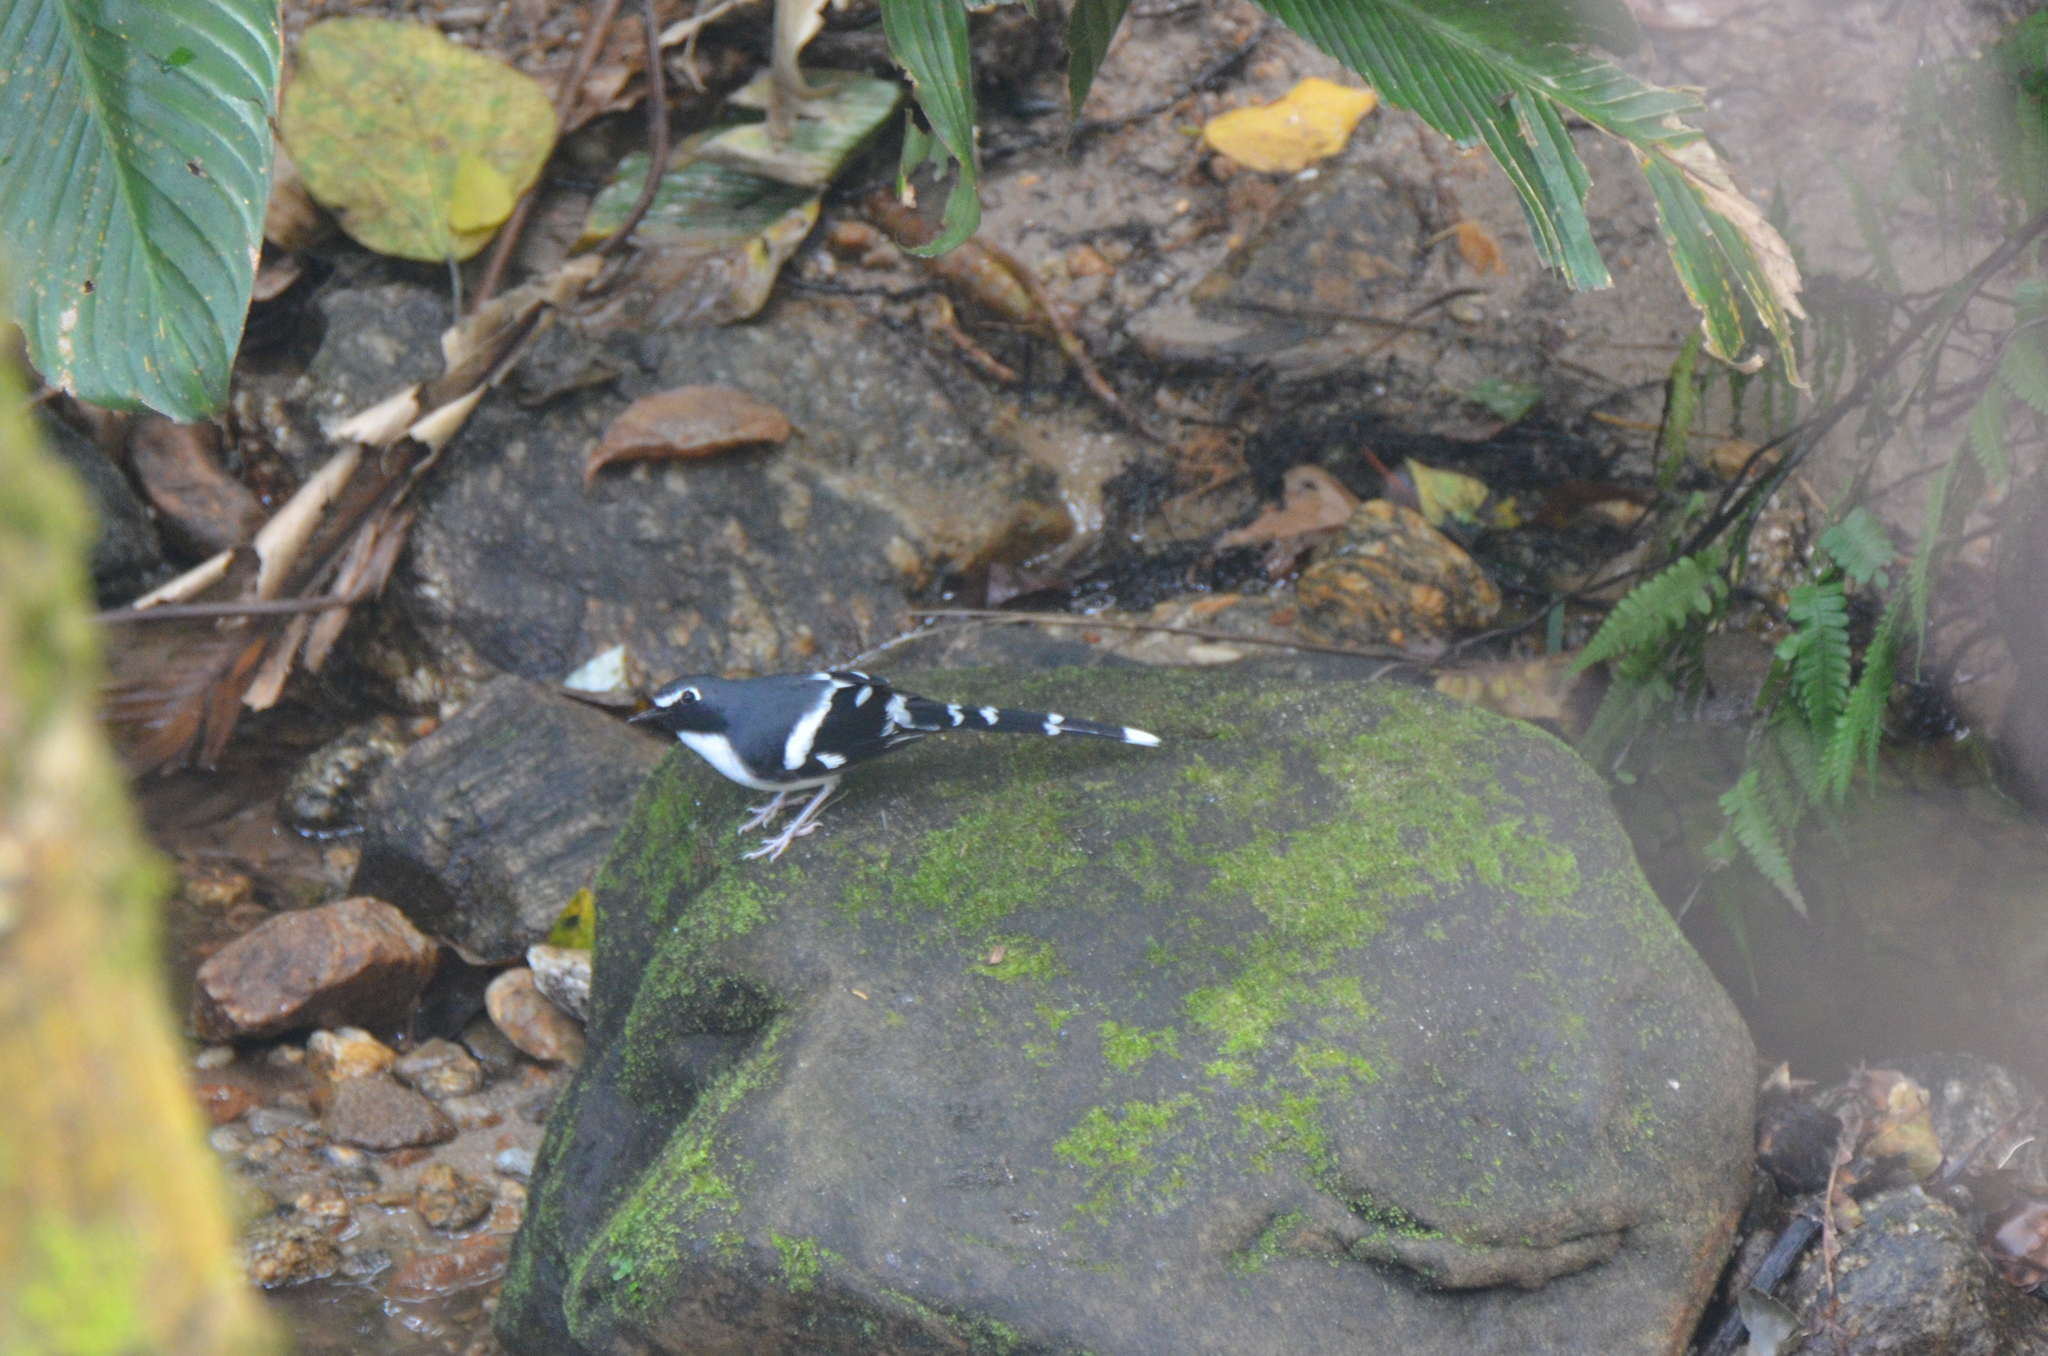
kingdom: Animalia
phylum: Chordata
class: Aves
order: Passeriformes
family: Muscicapidae
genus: Enicurus
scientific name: Enicurus schistaceus
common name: Slaty-backed forktail
